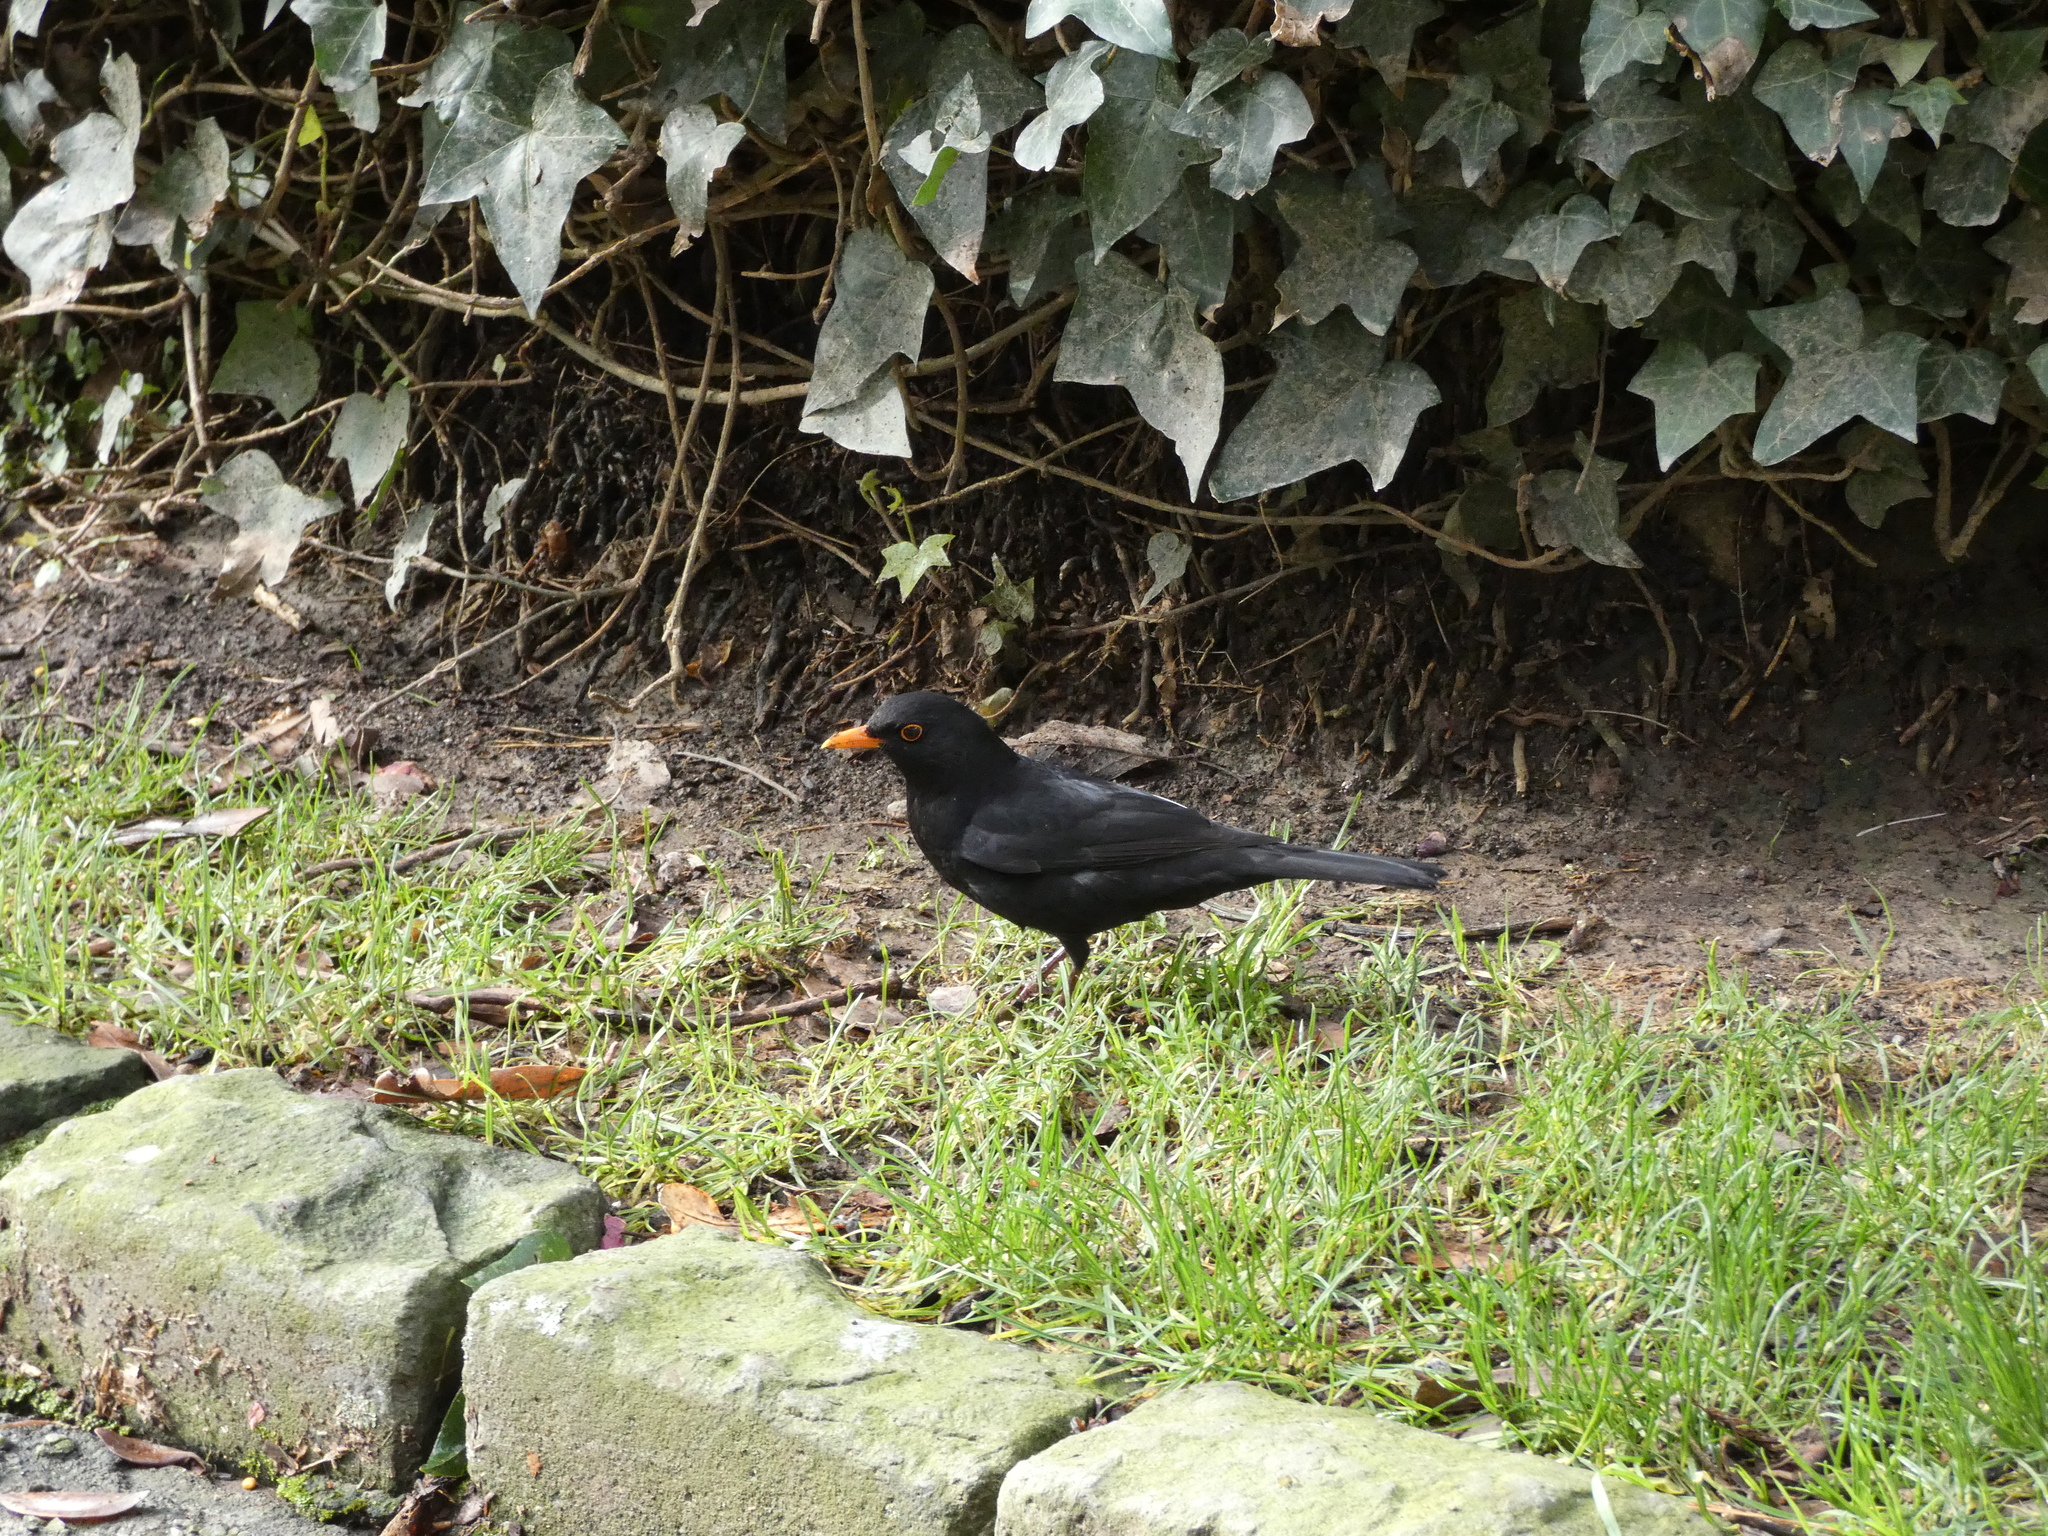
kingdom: Animalia
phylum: Chordata
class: Aves
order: Passeriformes
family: Turdidae
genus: Turdus
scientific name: Turdus merula
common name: Common blackbird
